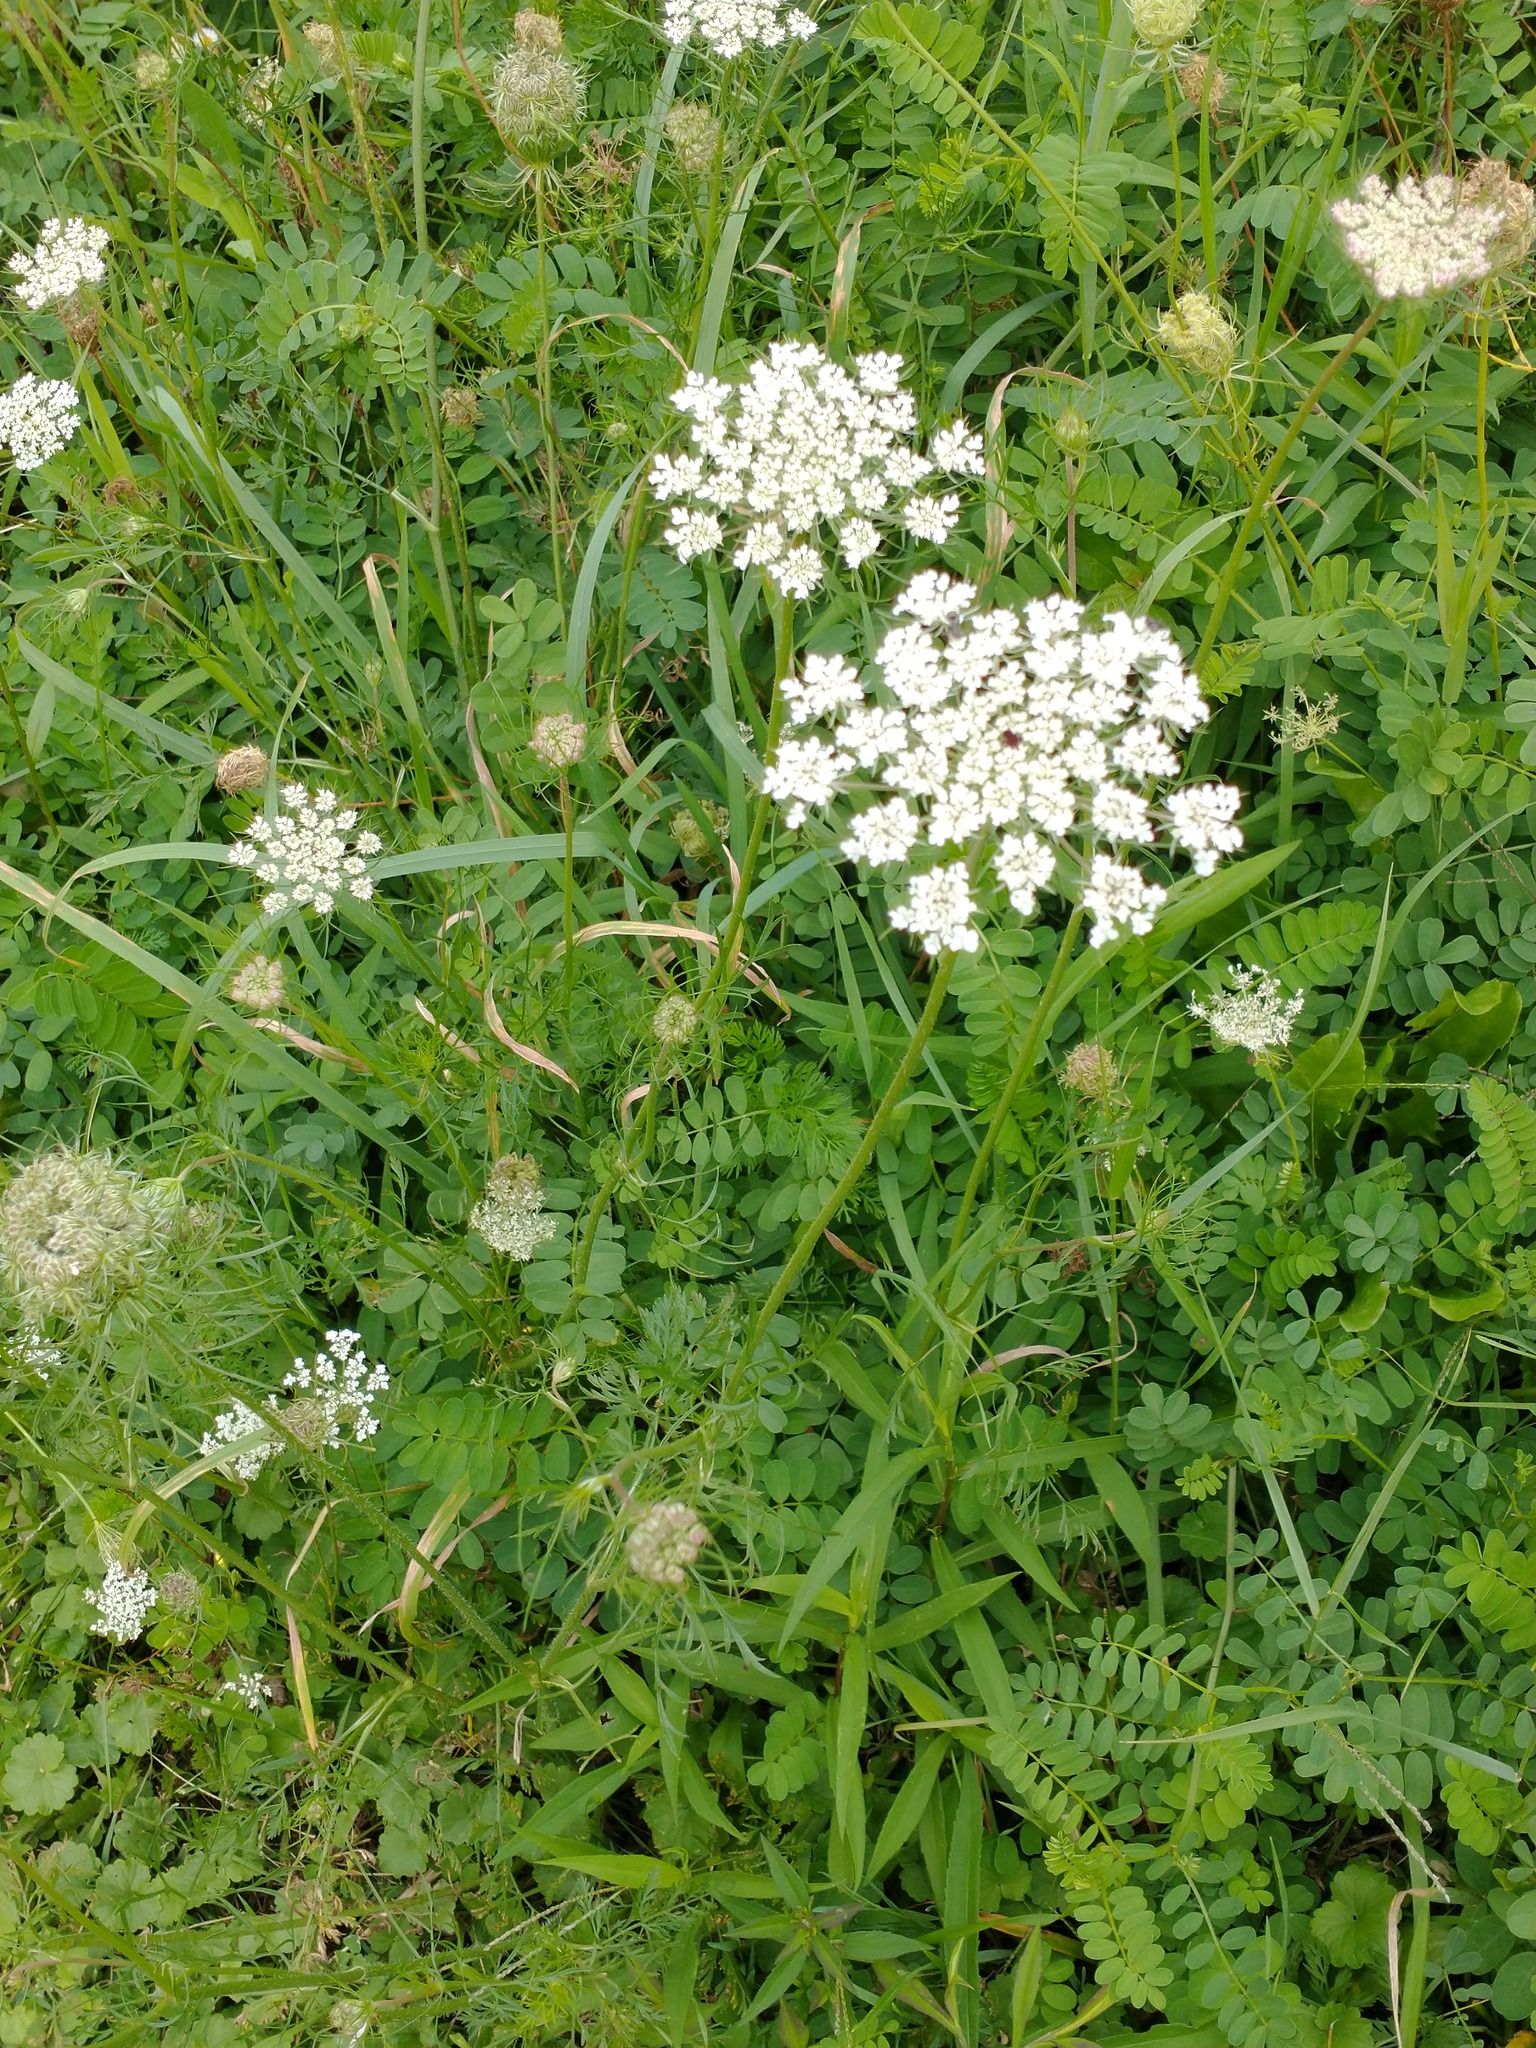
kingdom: Plantae
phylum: Tracheophyta
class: Magnoliopsida
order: Apiales
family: Apiaceae
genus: Daucus
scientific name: Daucus carota
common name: Wild carrot
